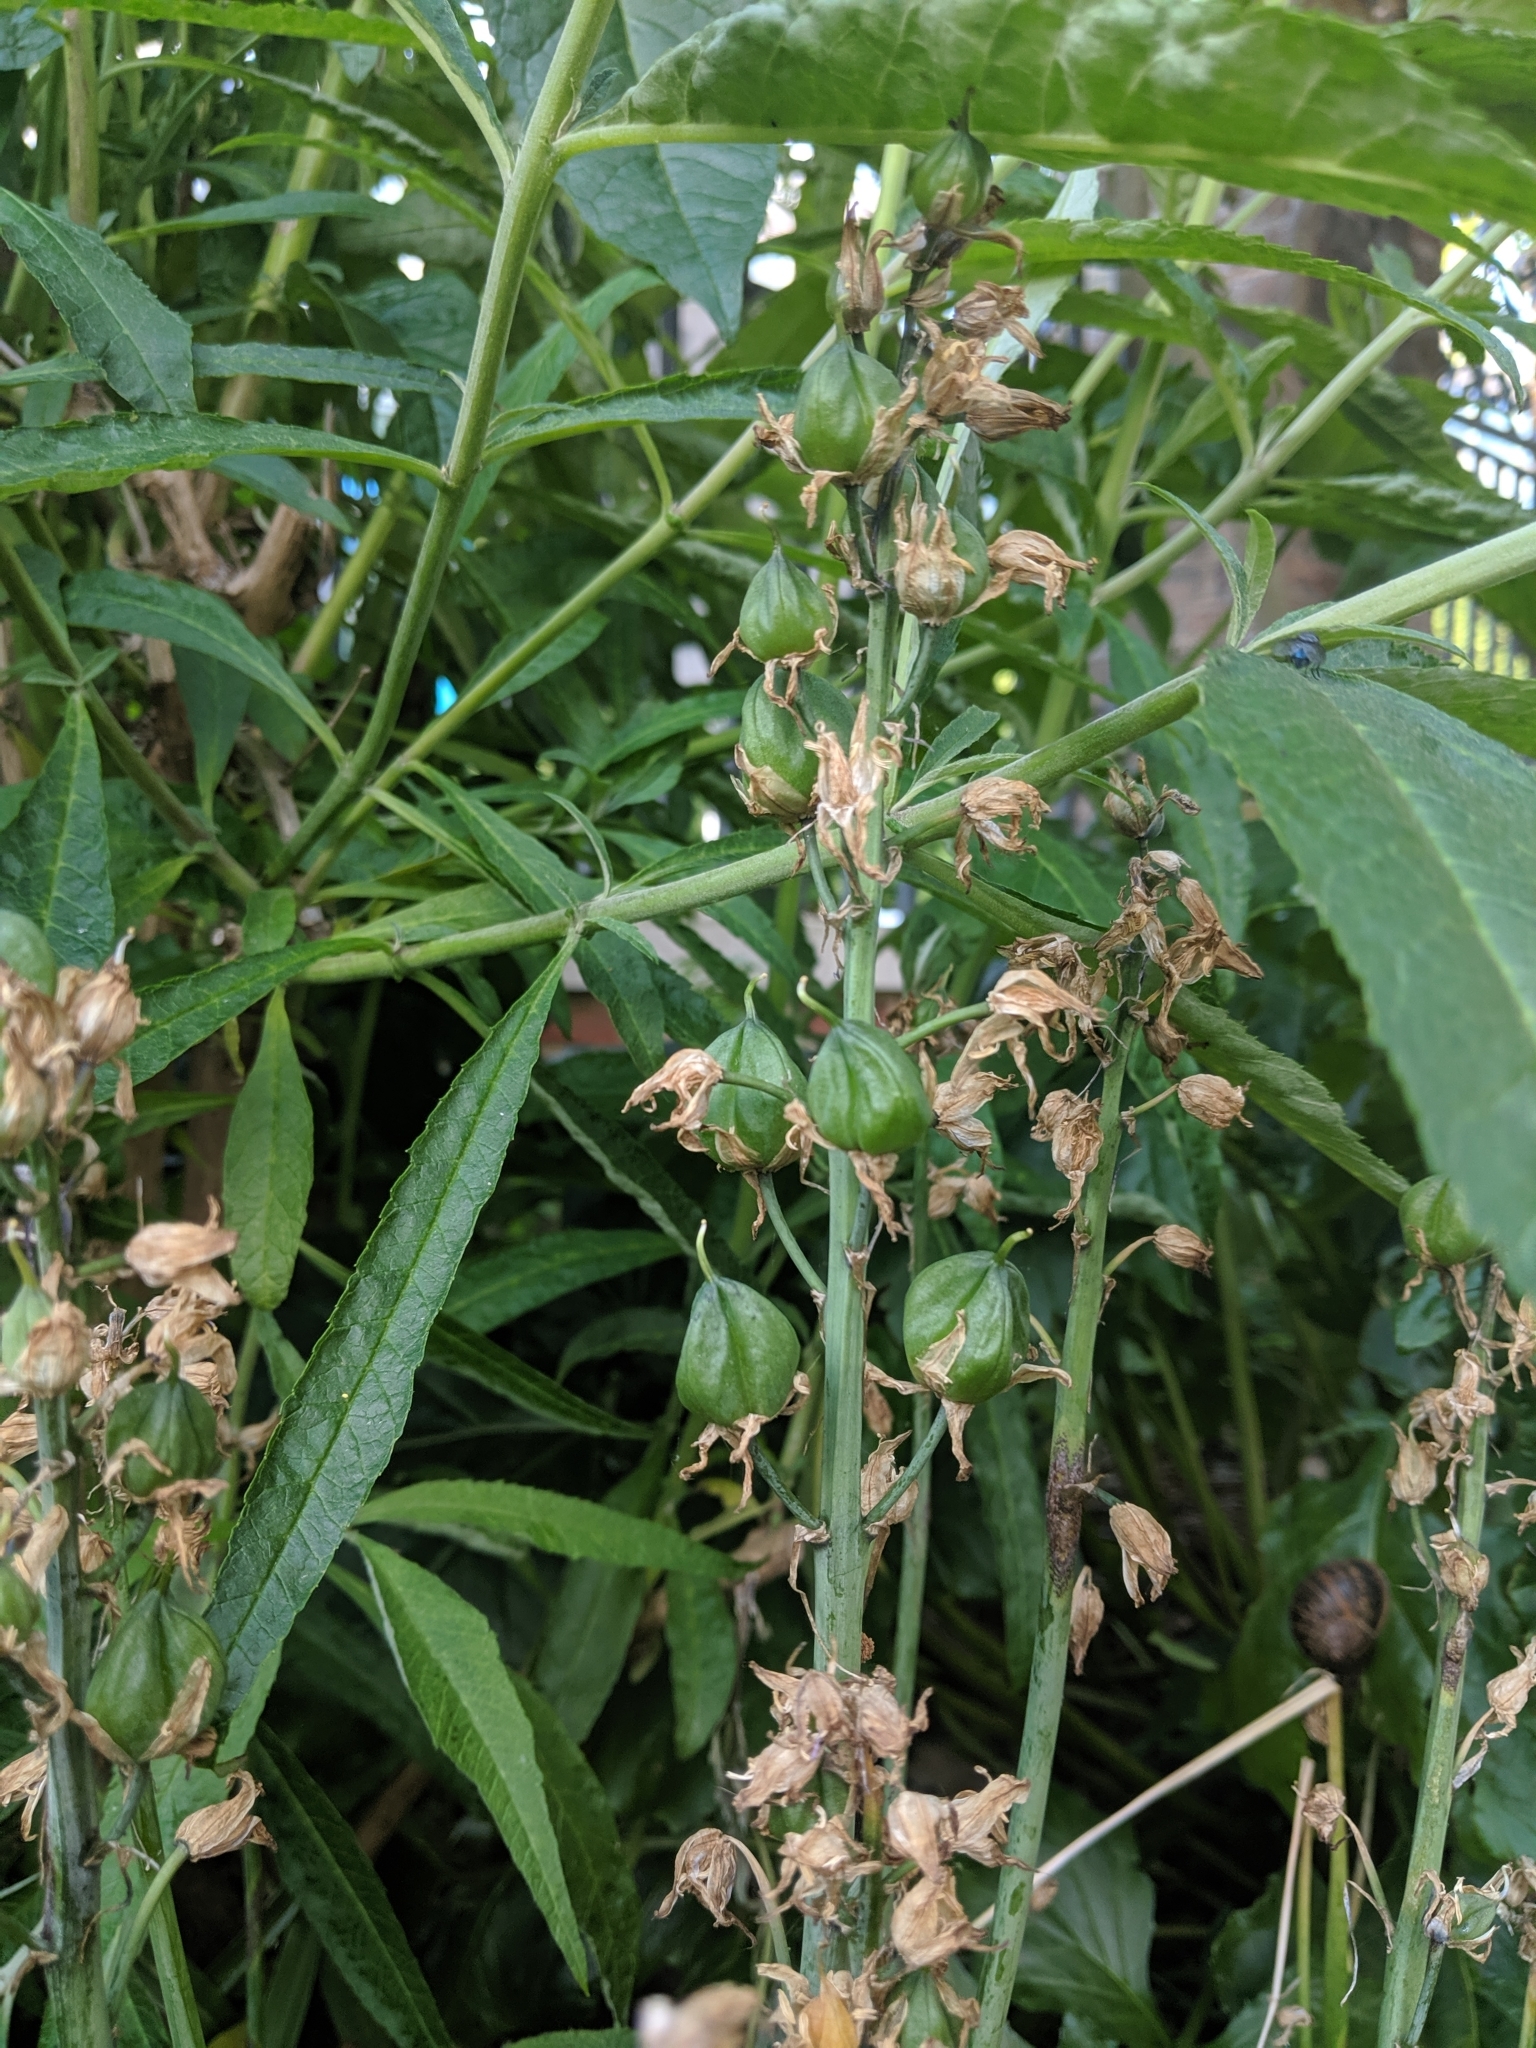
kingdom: Fungi
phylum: Basidiomycota
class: Pucciniomycetes
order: Pucciniales
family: Pucciniaceae
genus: Uromyces
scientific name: Uromyces hyacinthi
